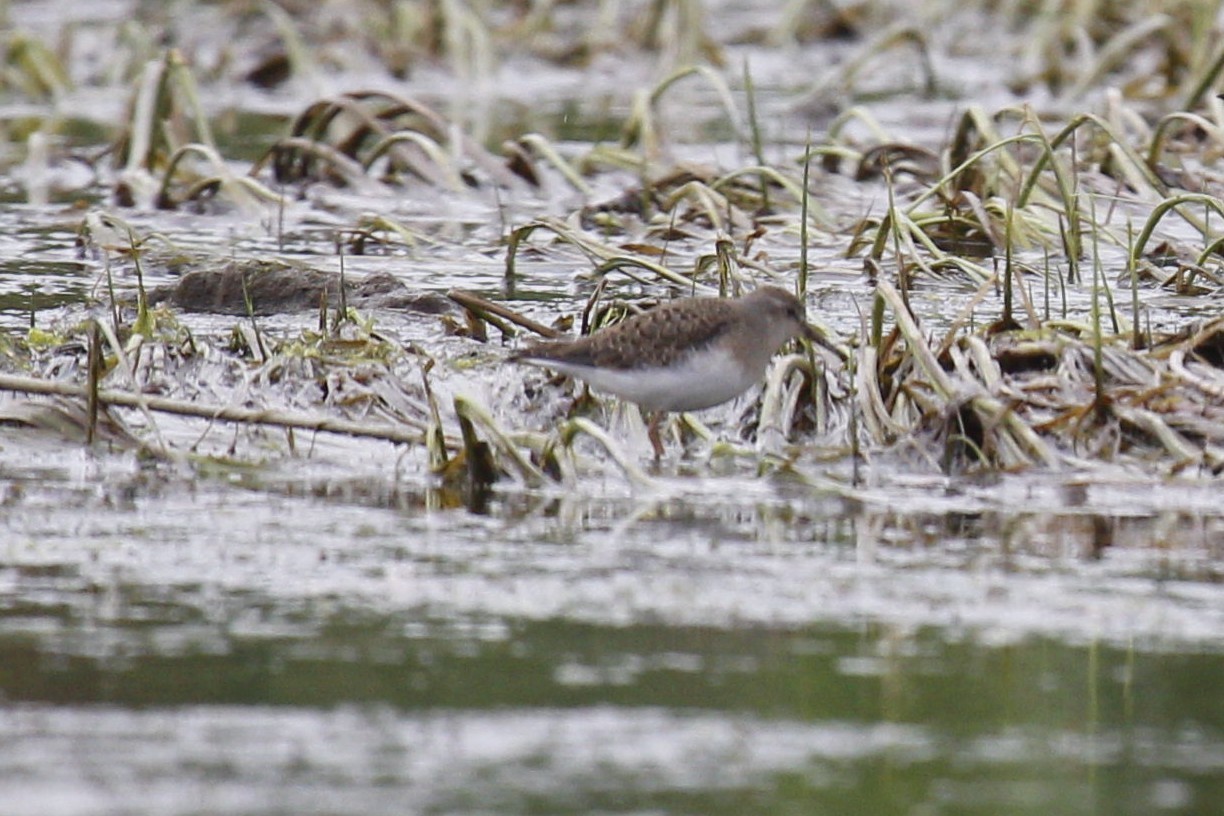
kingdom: Animalia
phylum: Chordata
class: Aves
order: Charadriiformes
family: Scolopacidae
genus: Calidris
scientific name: Calidris temminckii
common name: Temminck's stint
